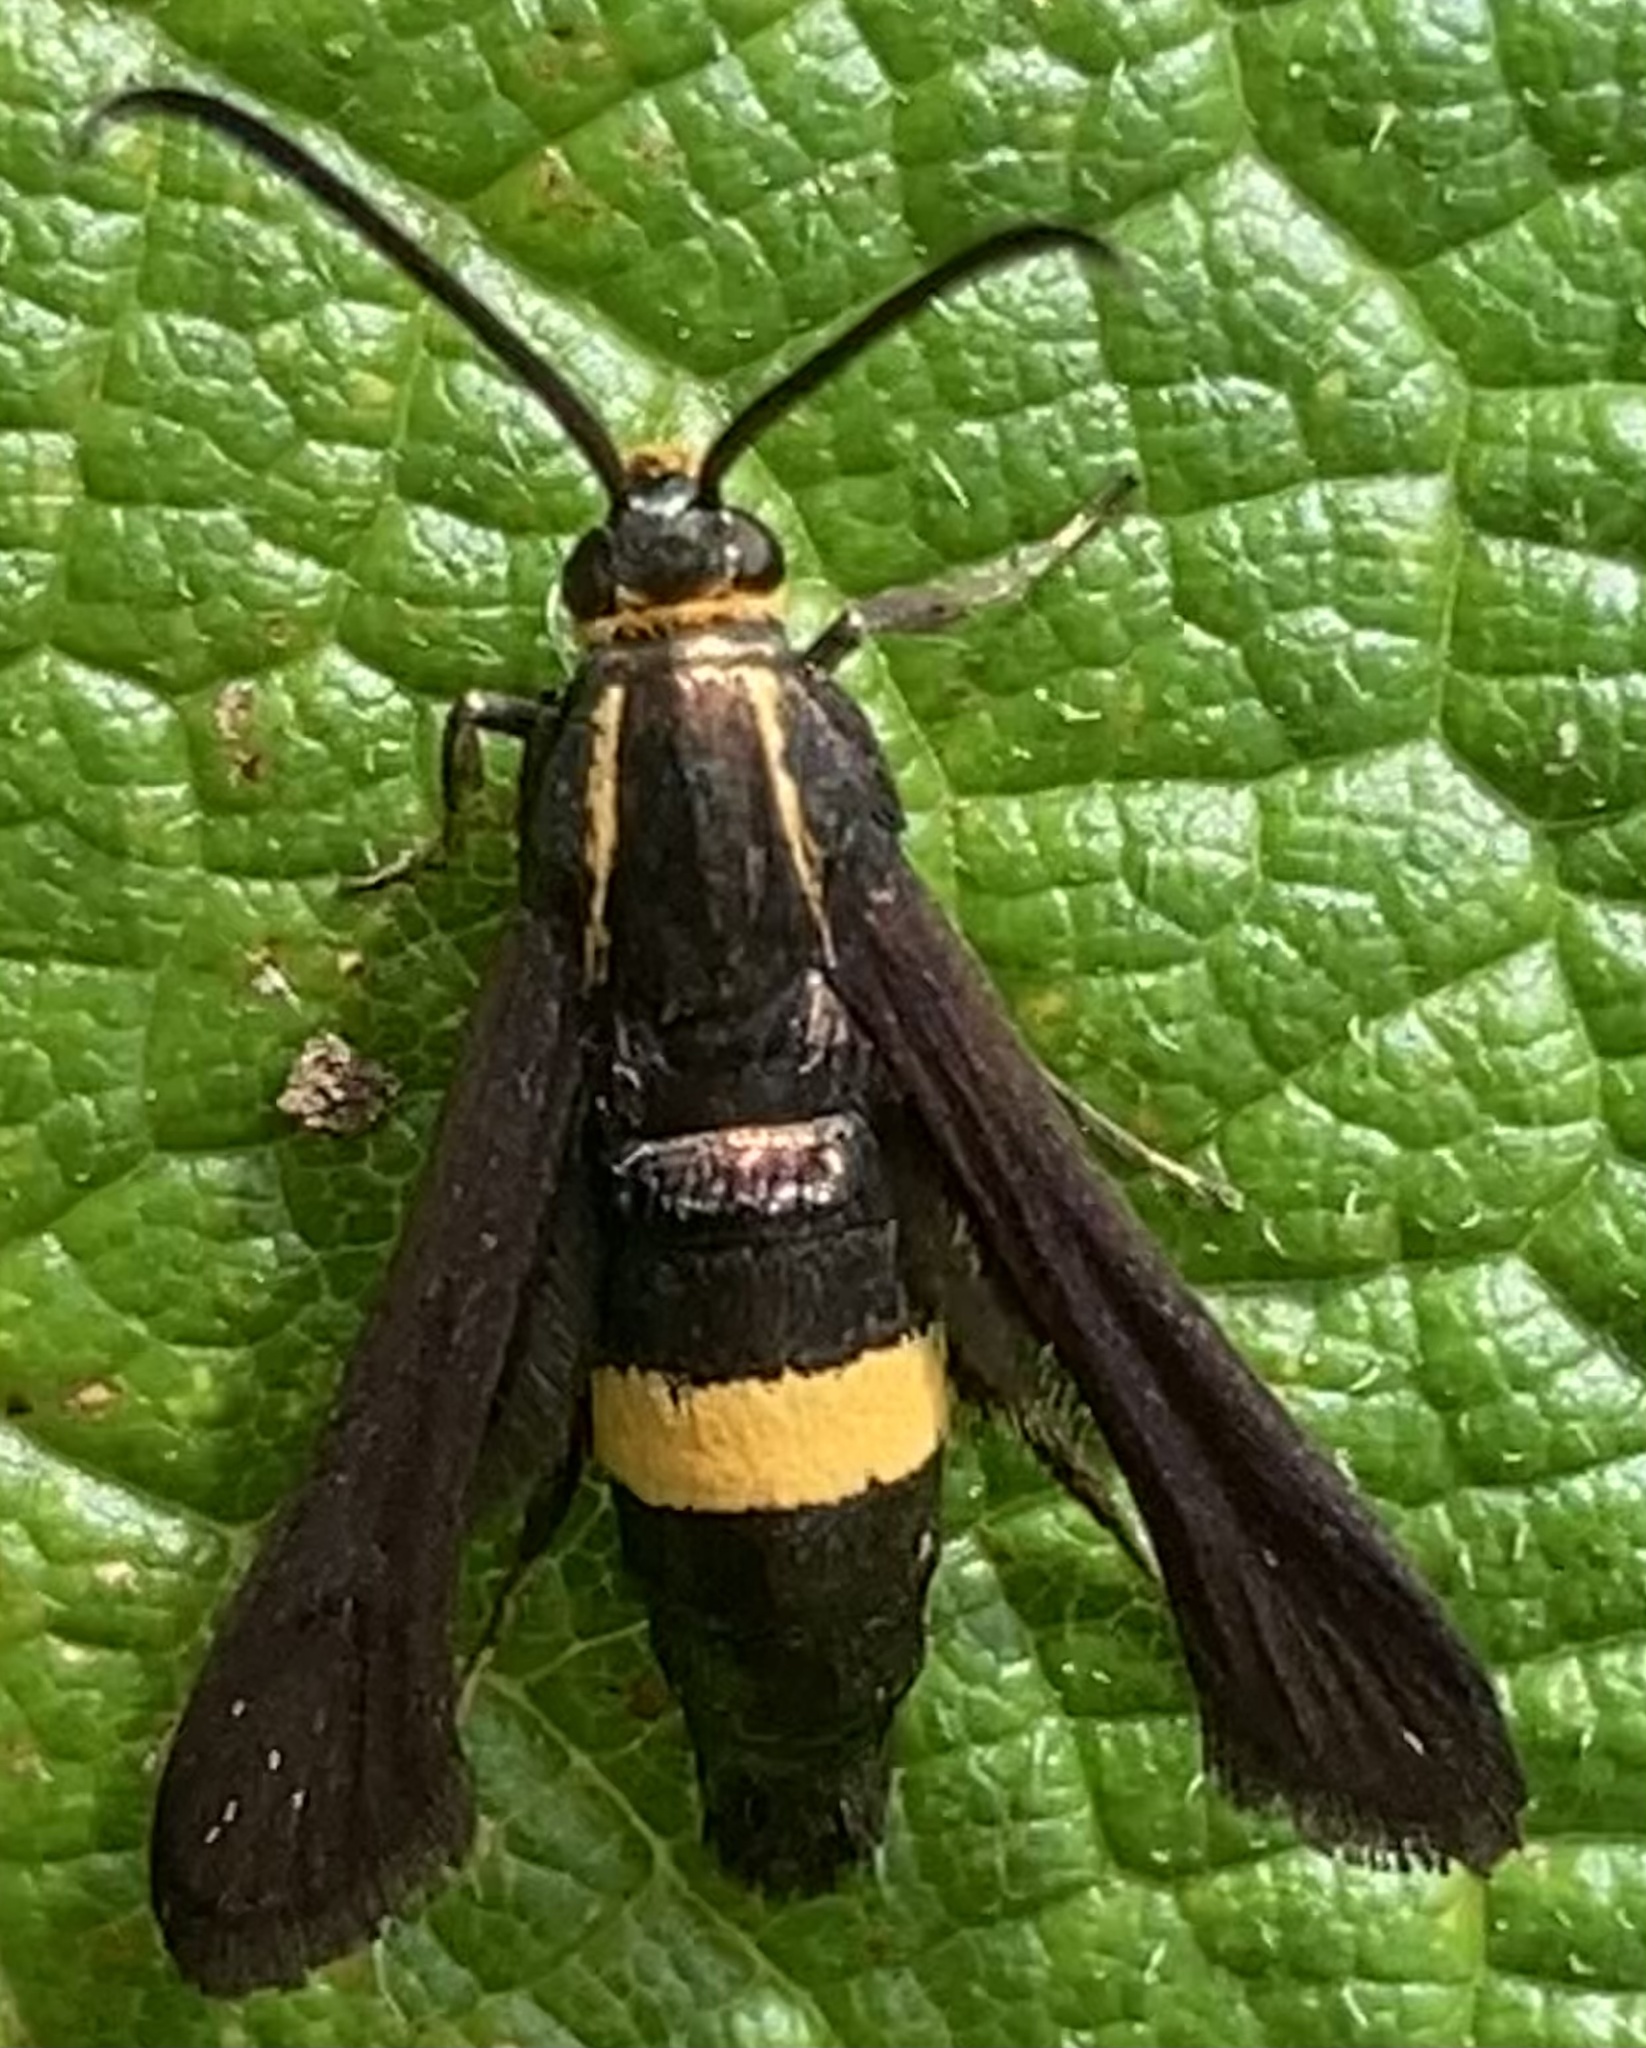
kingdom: Animalia
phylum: Arthropoda
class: Insecta
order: Lepidoptera
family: Sesiidae
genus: Carmenta
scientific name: Carmenta pyralidiformis
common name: Boneset borer moth
